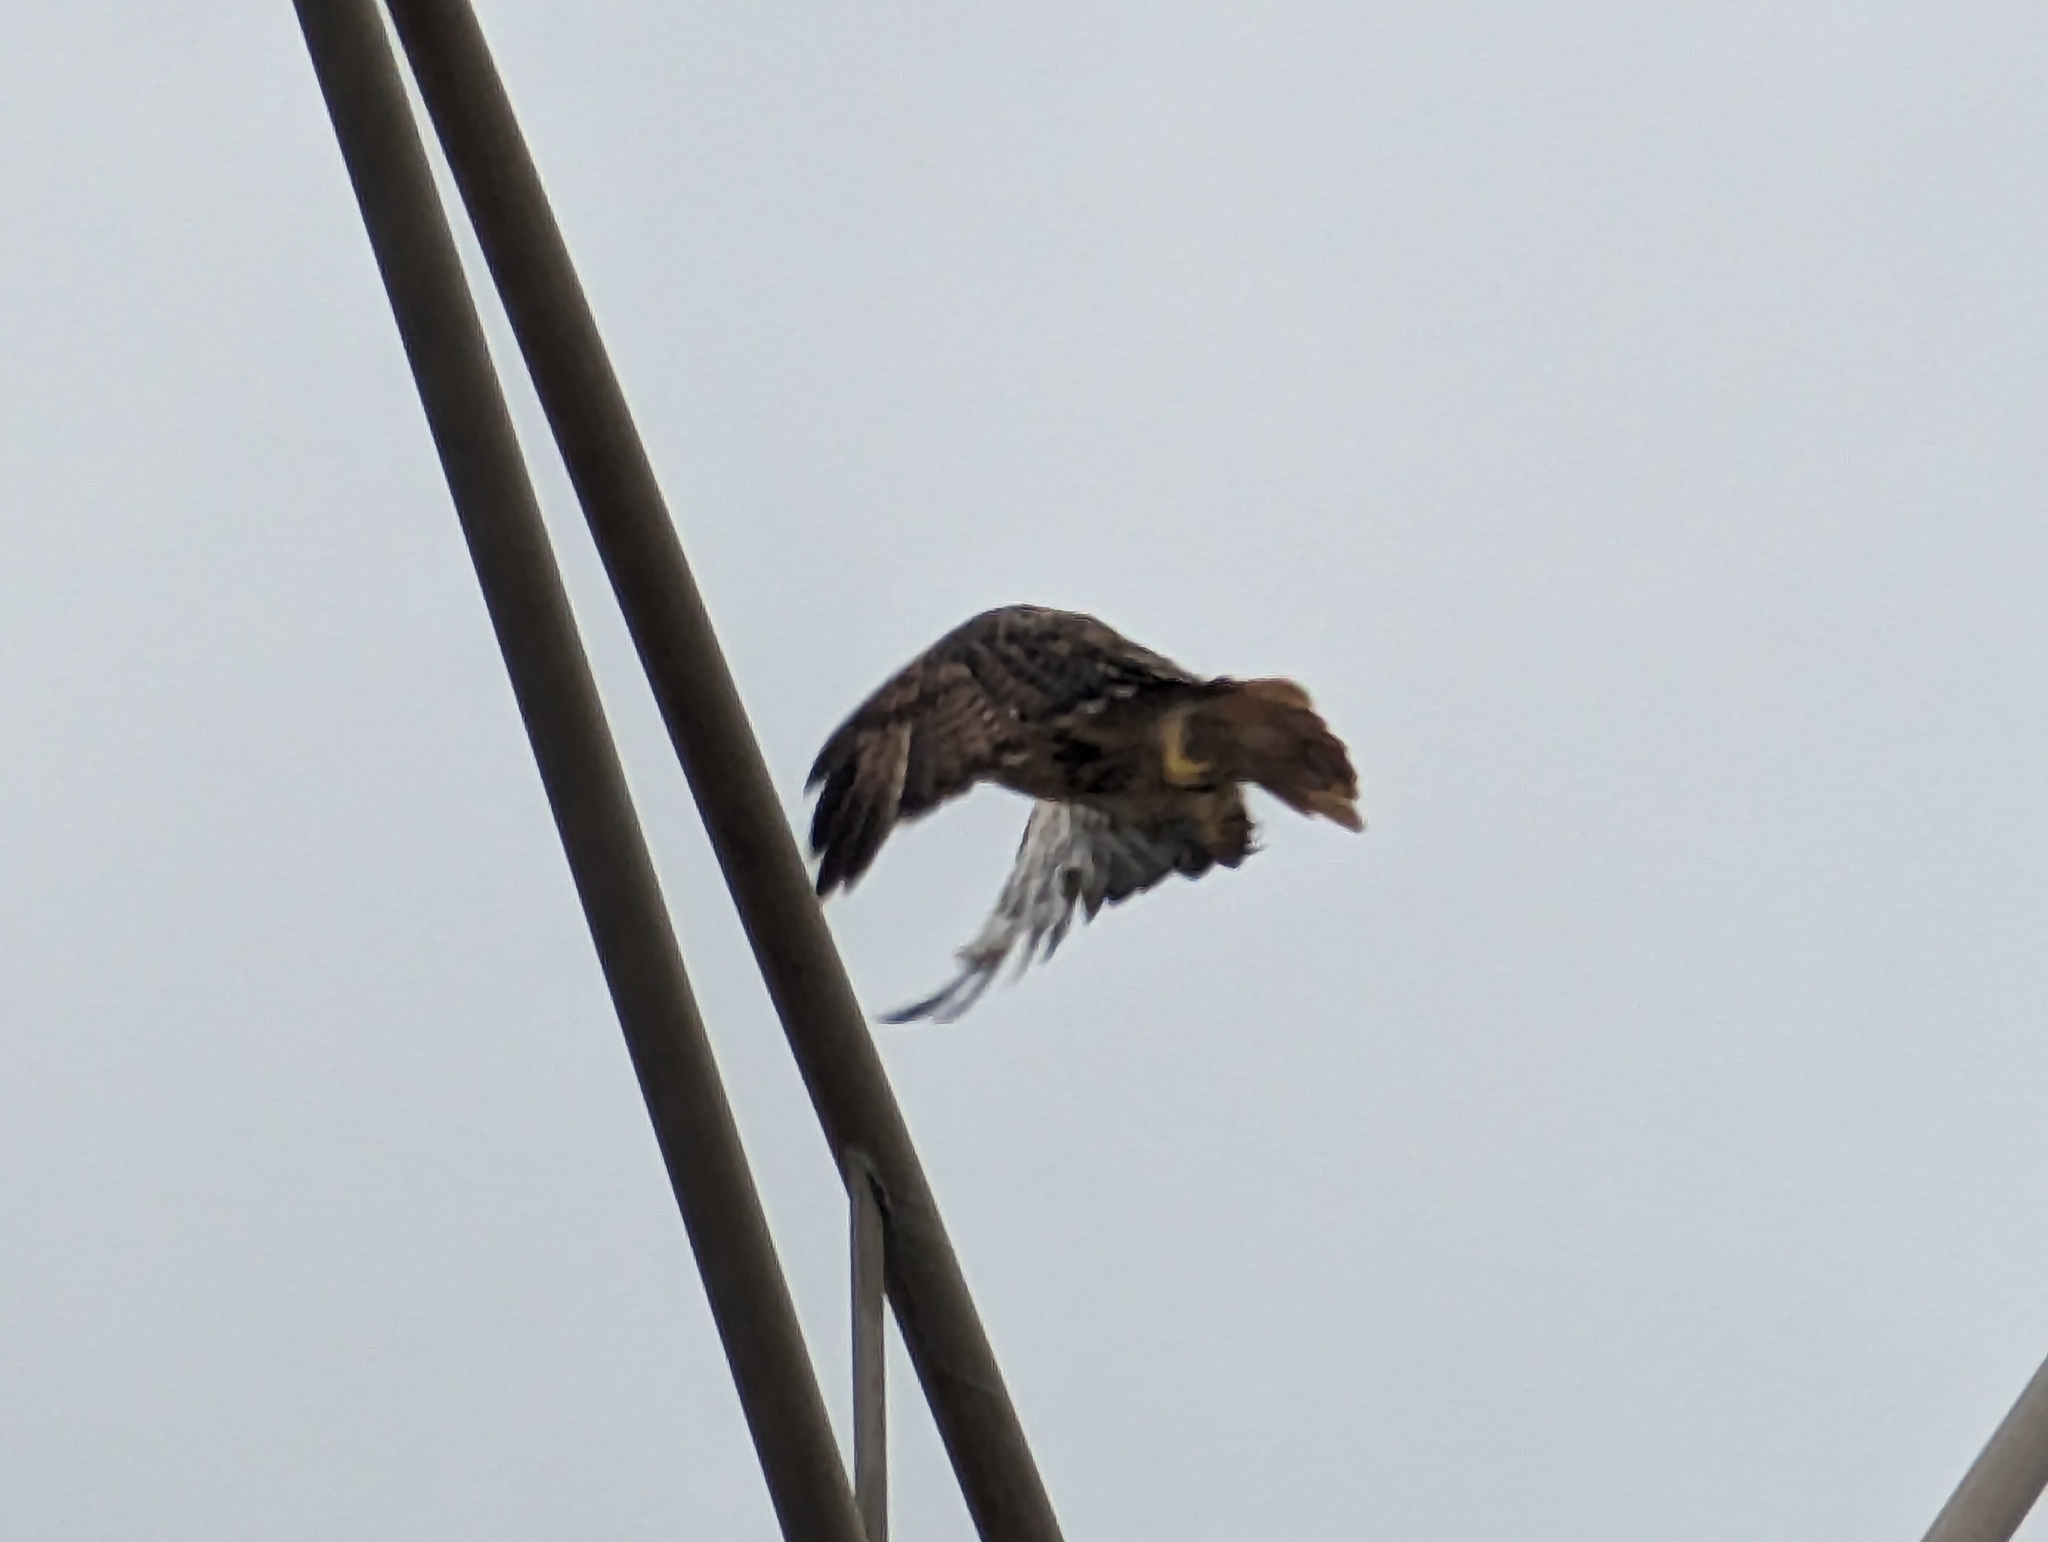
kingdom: Animalia
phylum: Chordata
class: Aves
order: Accipitriformes
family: Accipitridae
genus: Buteo
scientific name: Buteo jamaicensis
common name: Red-tailed hawk
